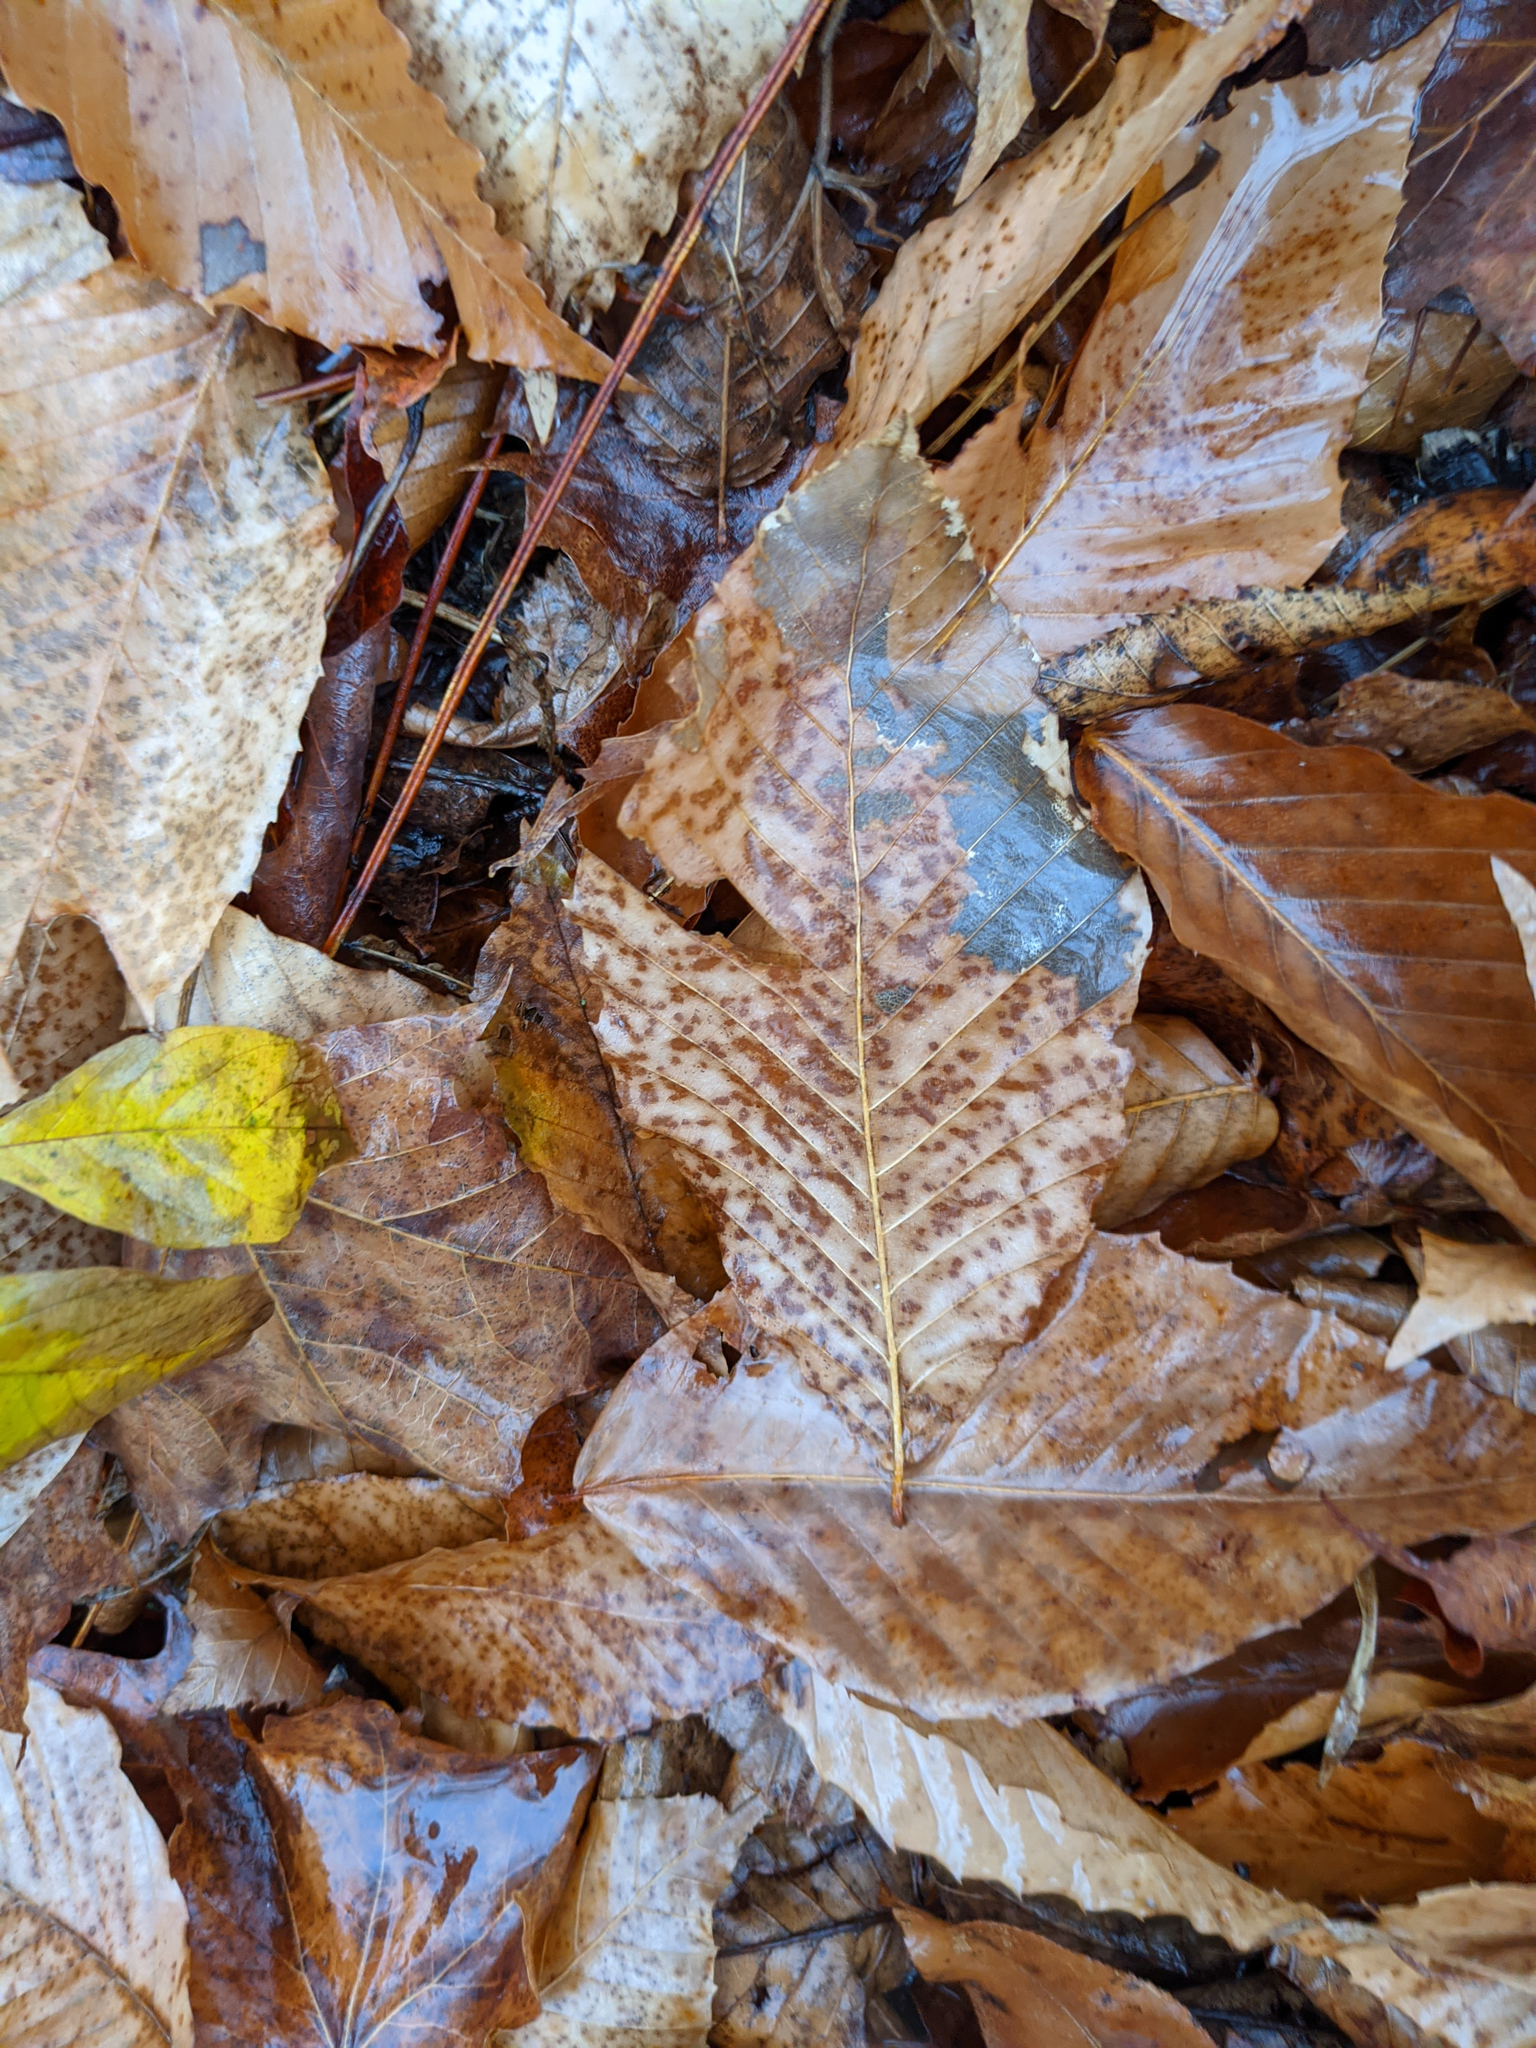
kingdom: Plantae
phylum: Tracheophyta
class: Magnoliopsida
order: Fagales
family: Fagaceae
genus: Fagus
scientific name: Fagus grandifolia
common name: American beech
